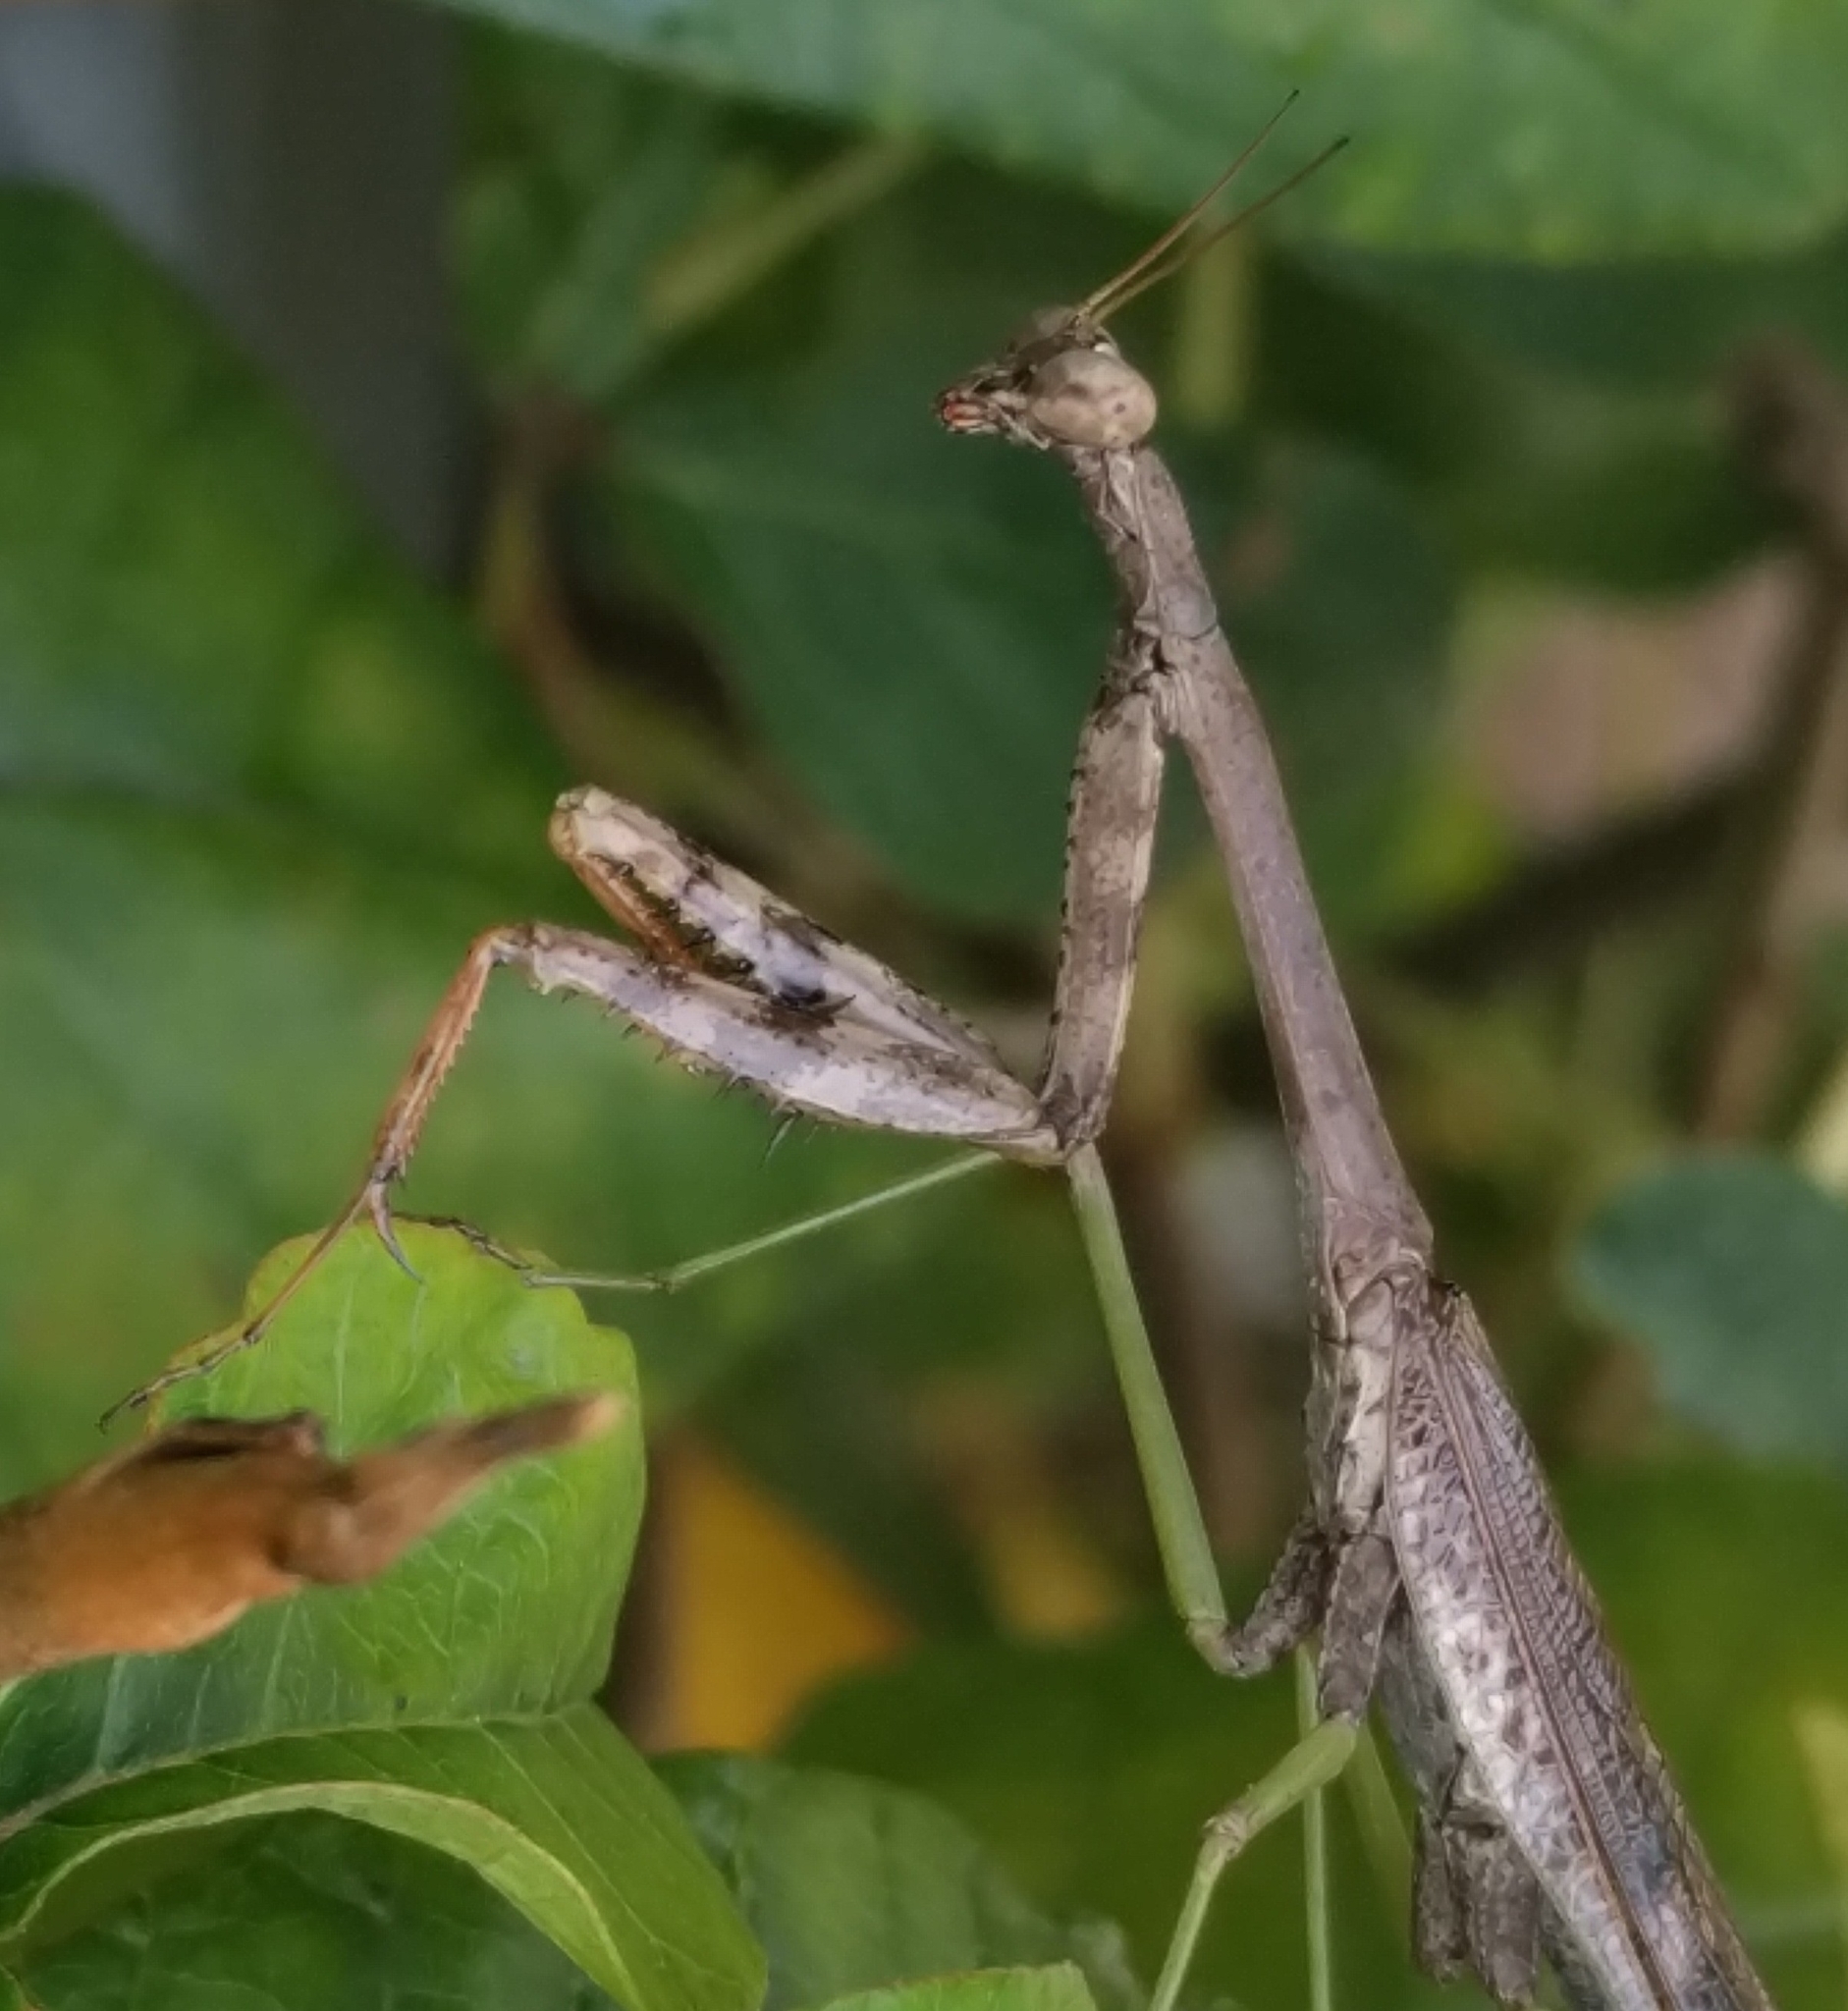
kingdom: Animalia
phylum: Arthropoda
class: Insecta
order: Mantodea
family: Mantidae
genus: Stagmomantis
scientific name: Stagmomantis carolina
